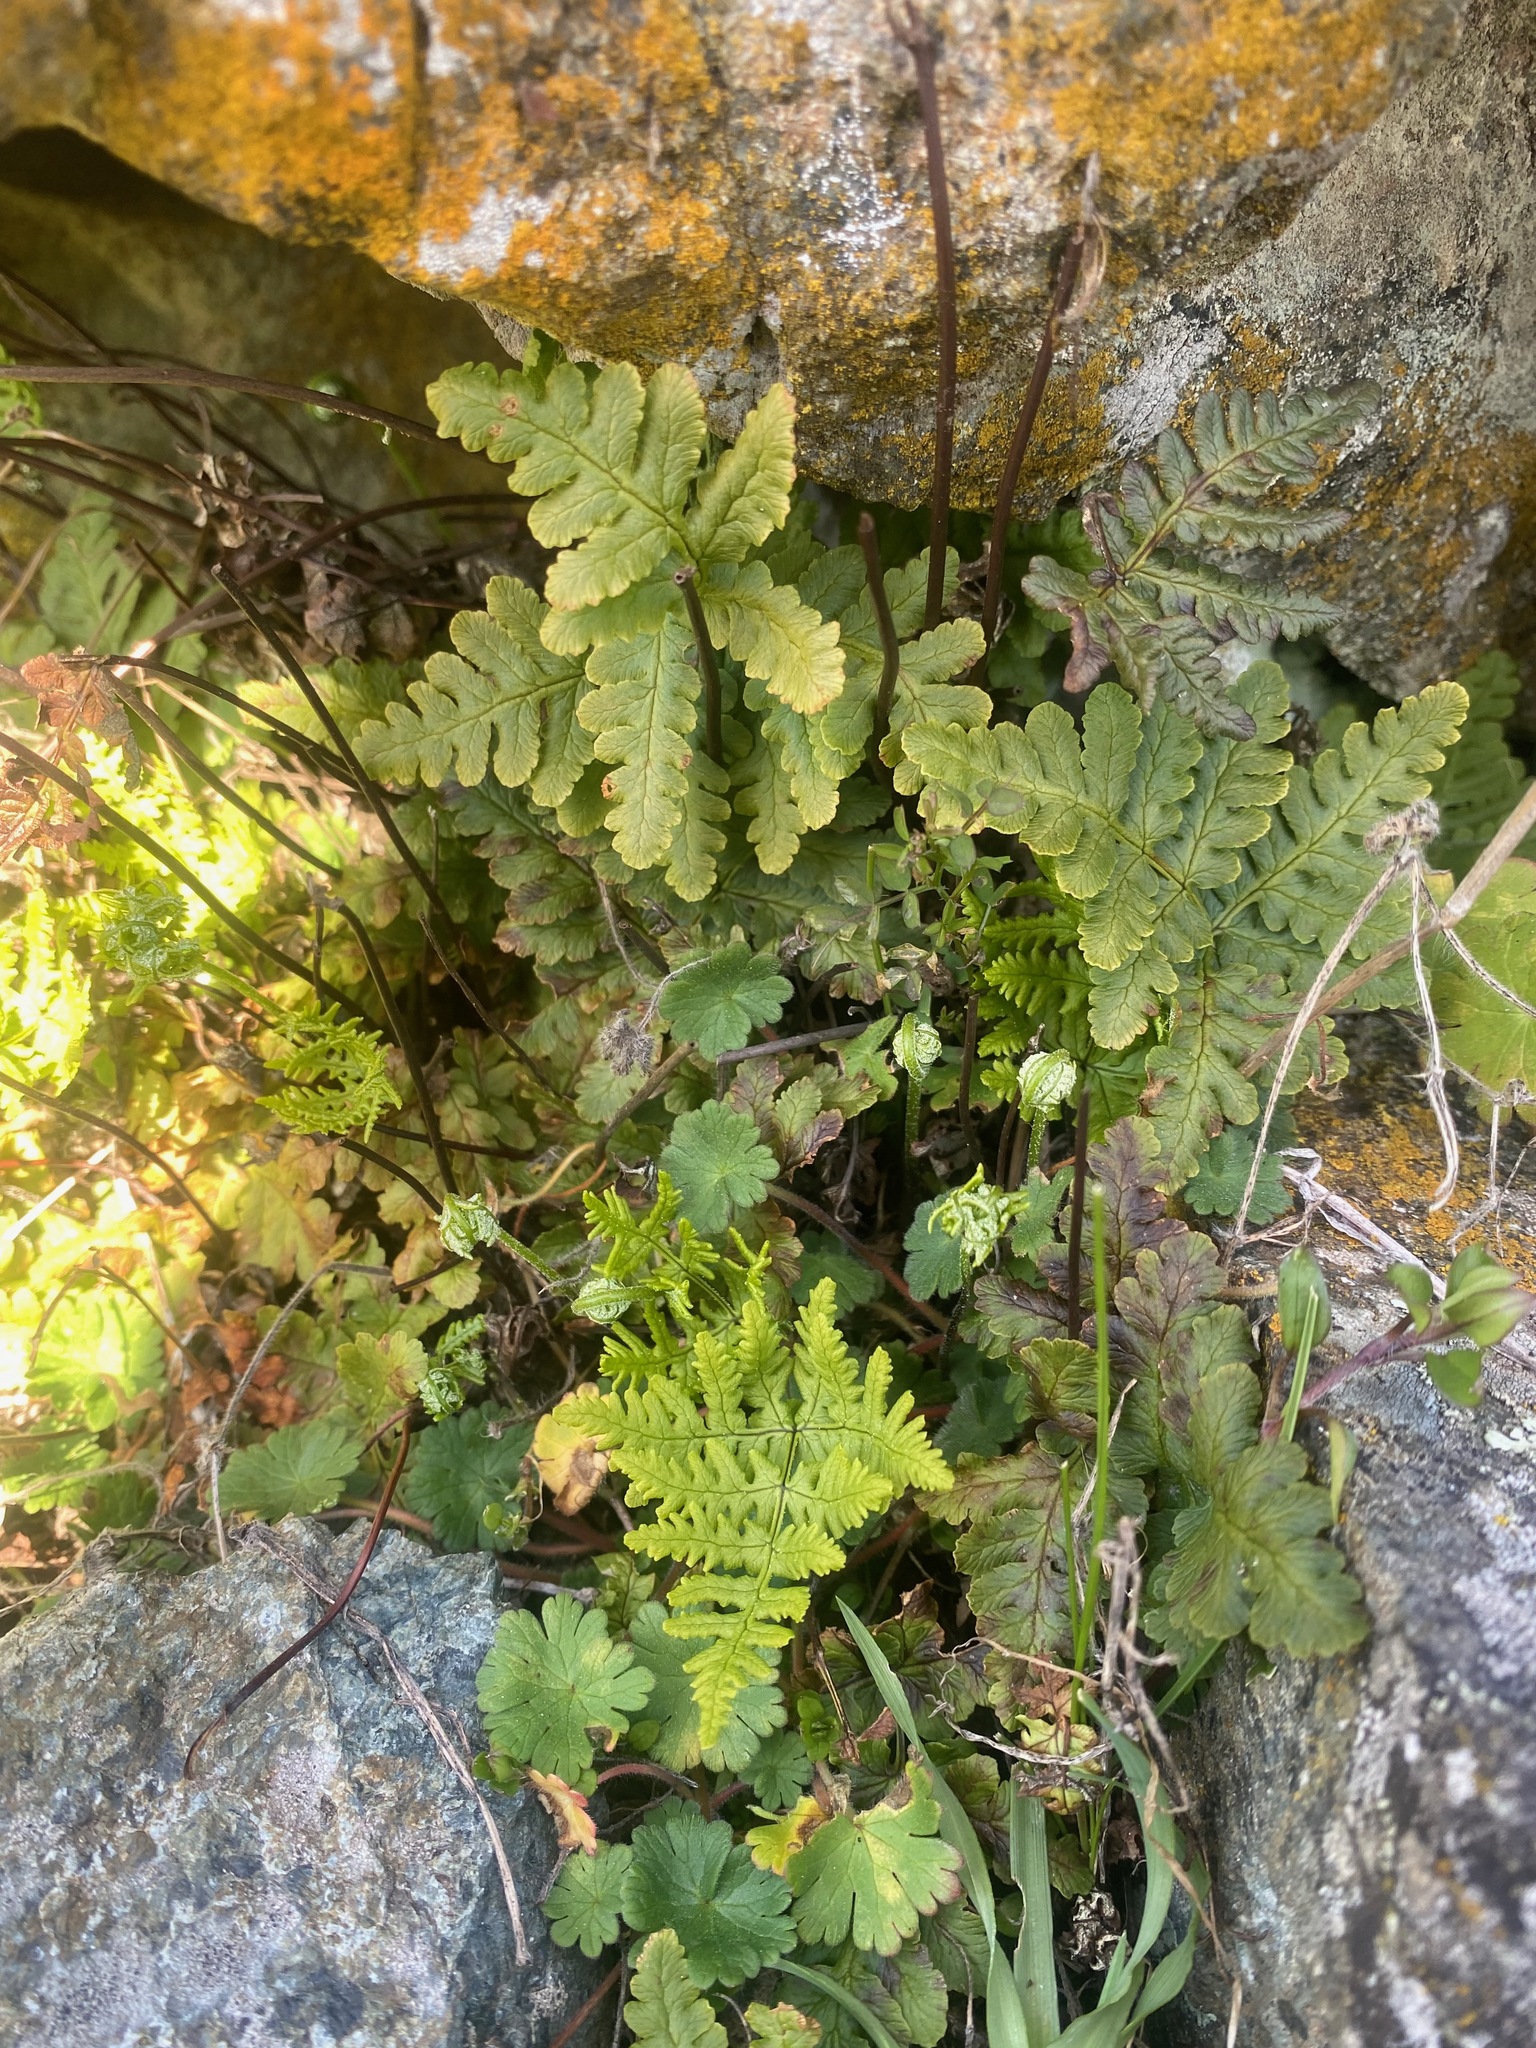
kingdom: Plantae
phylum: Tracheophyta
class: Polypodiopsida
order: Polypodiales
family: Pteridaceae
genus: Pentagramma
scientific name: Pentagramma triangularis
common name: Gold fern
